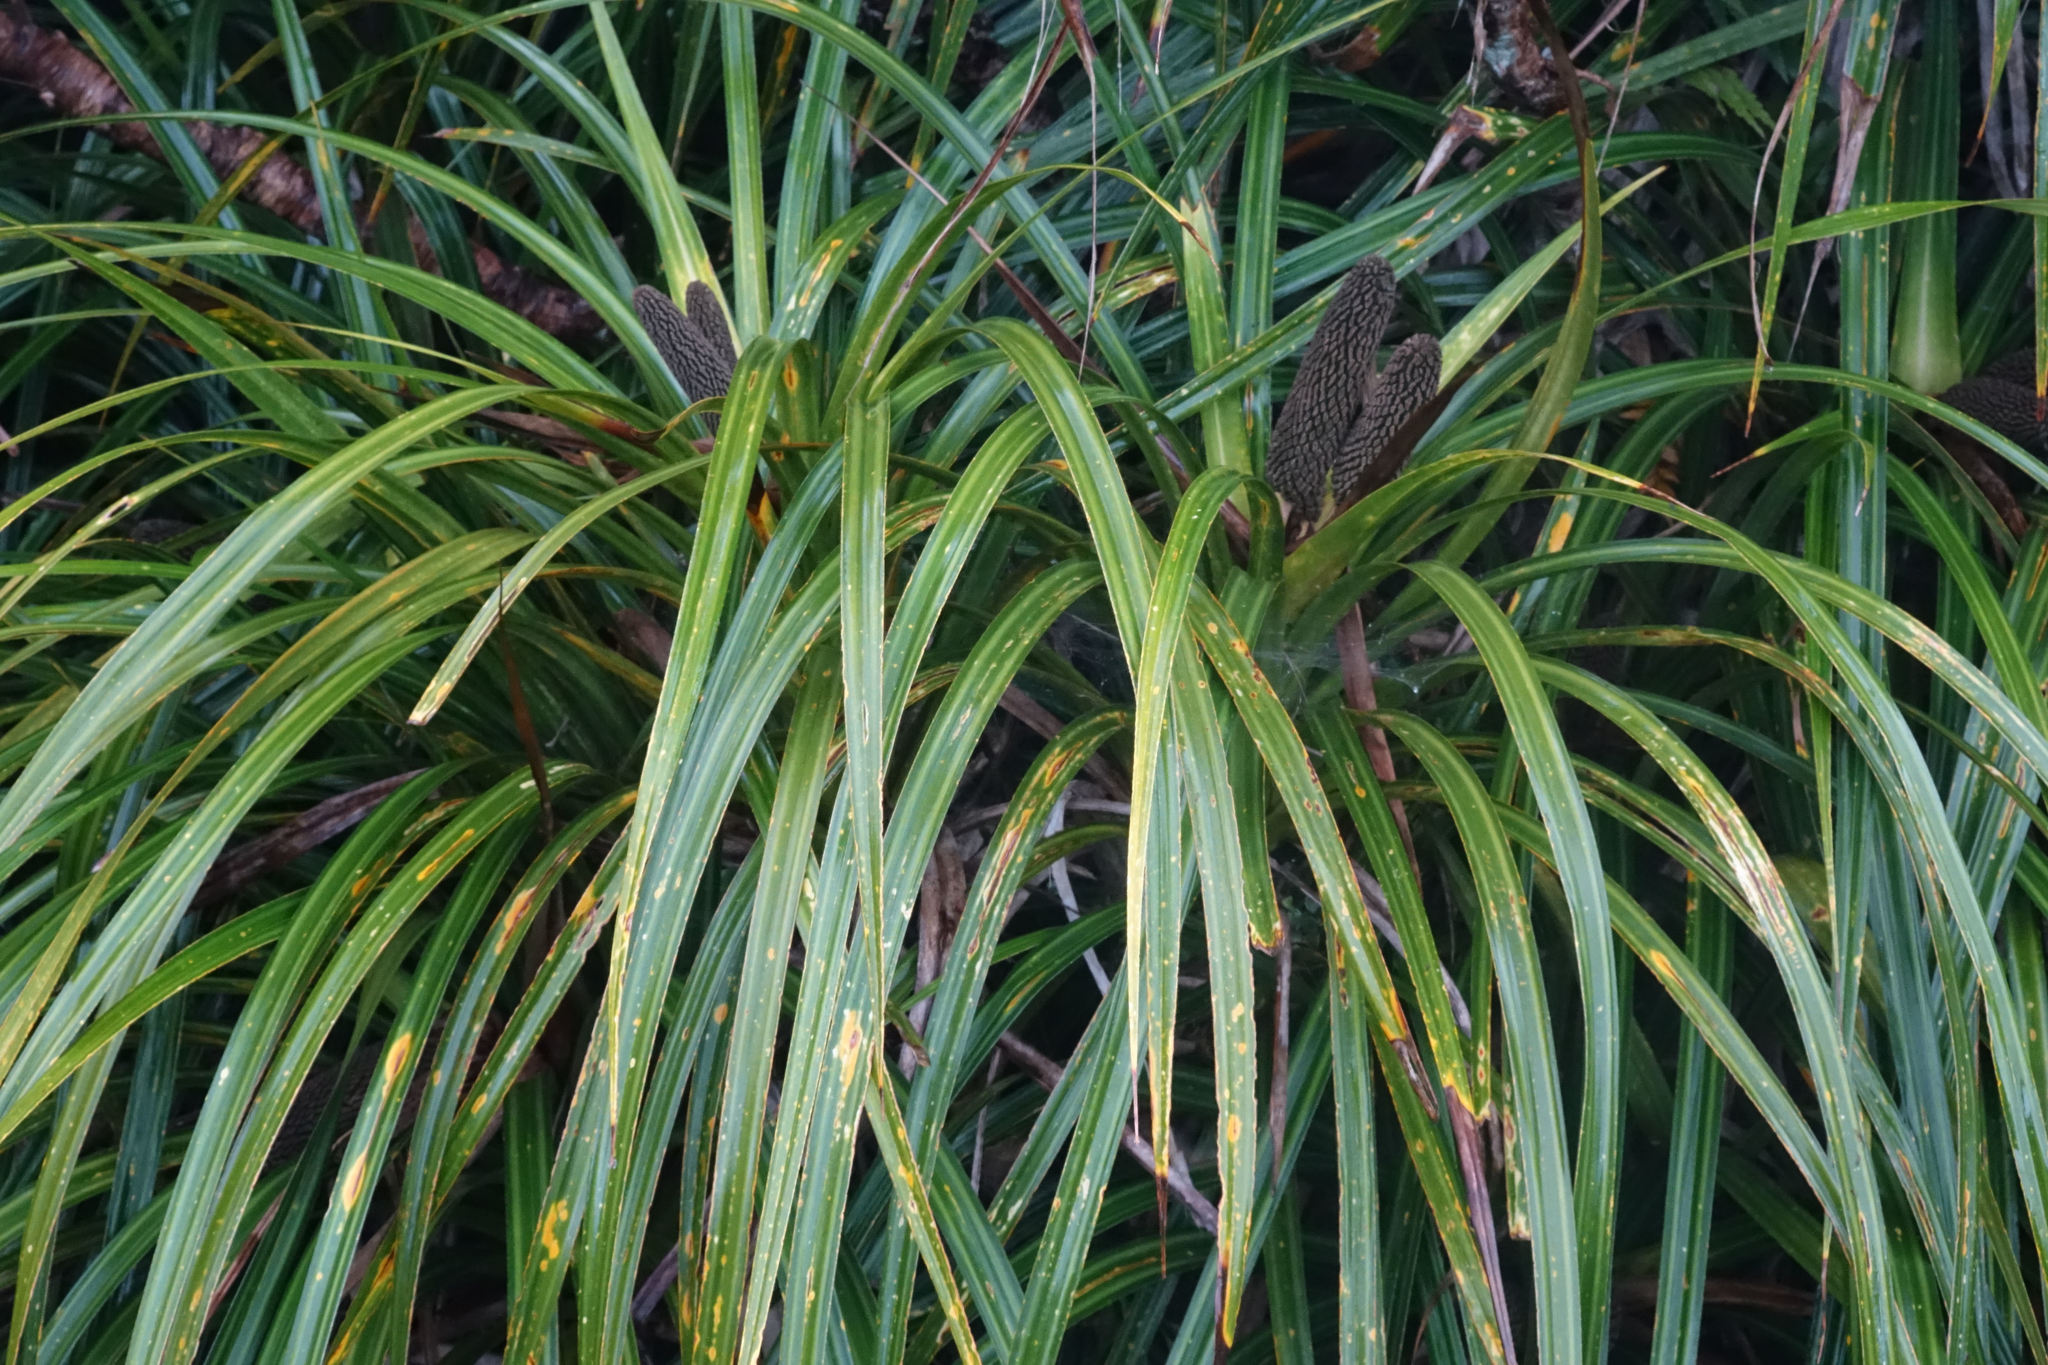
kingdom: Plantae
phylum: Tracheophyta
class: Liliopsida
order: Pandanales
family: Pandanaceae
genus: Freycinetia
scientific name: Freycinetia banksii
